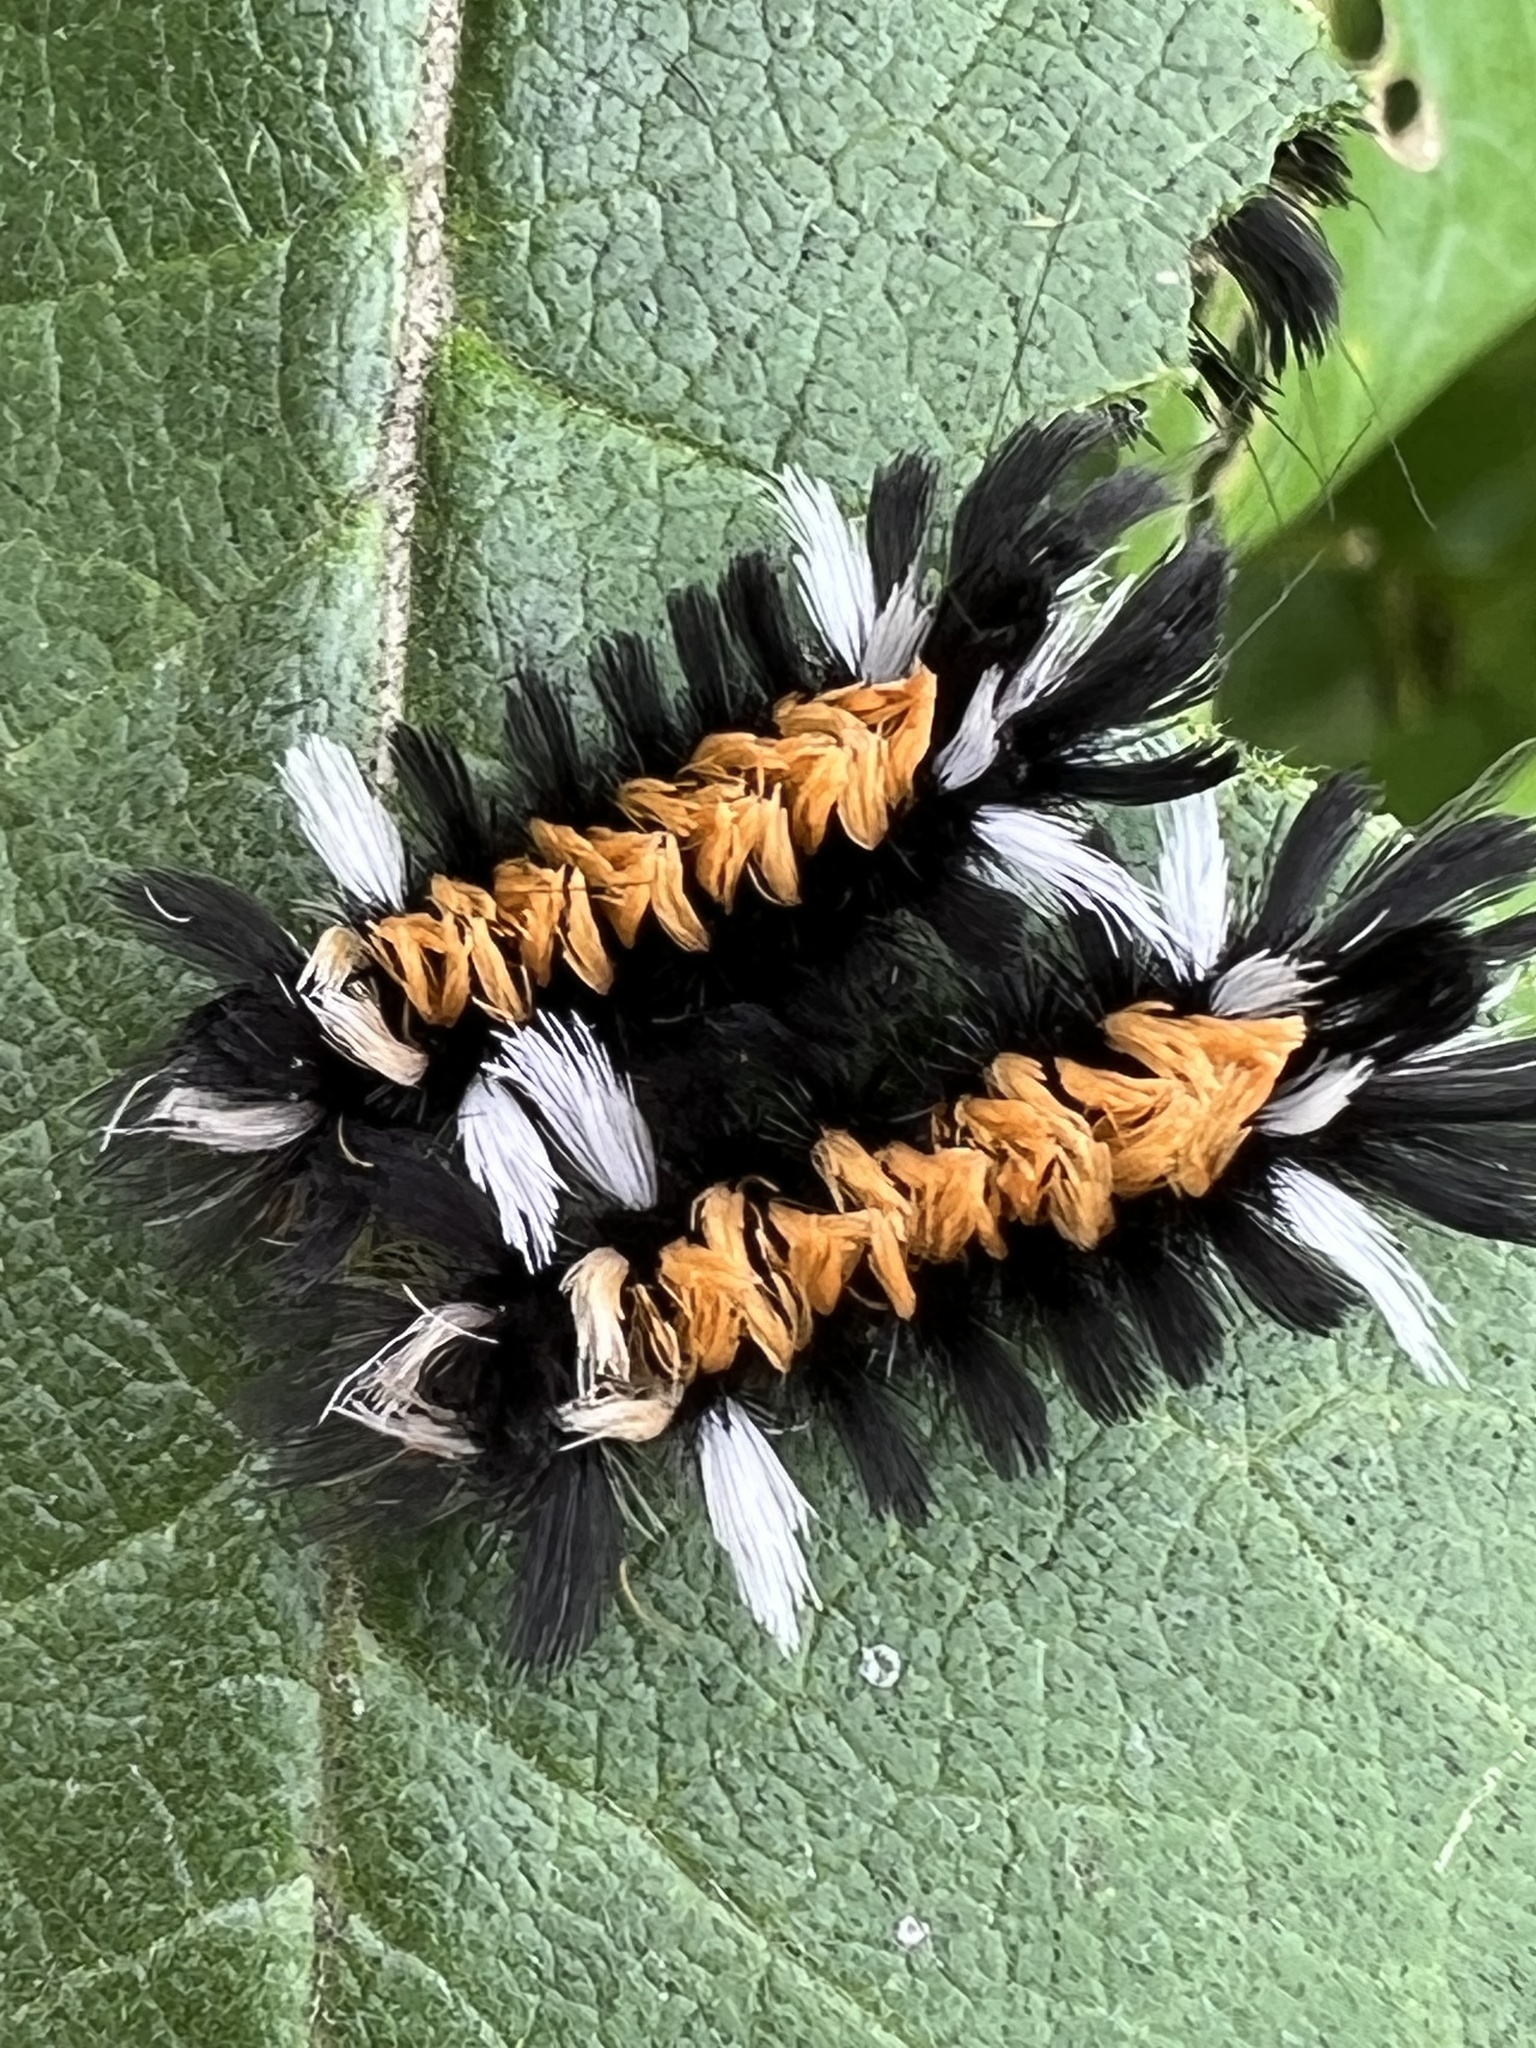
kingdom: Animalia
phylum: Arthropoda
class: Insecta
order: Lepidoptera
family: Erebidae
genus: Euchaetes
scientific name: Euchaetes egle
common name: Milkweed tussock moth
